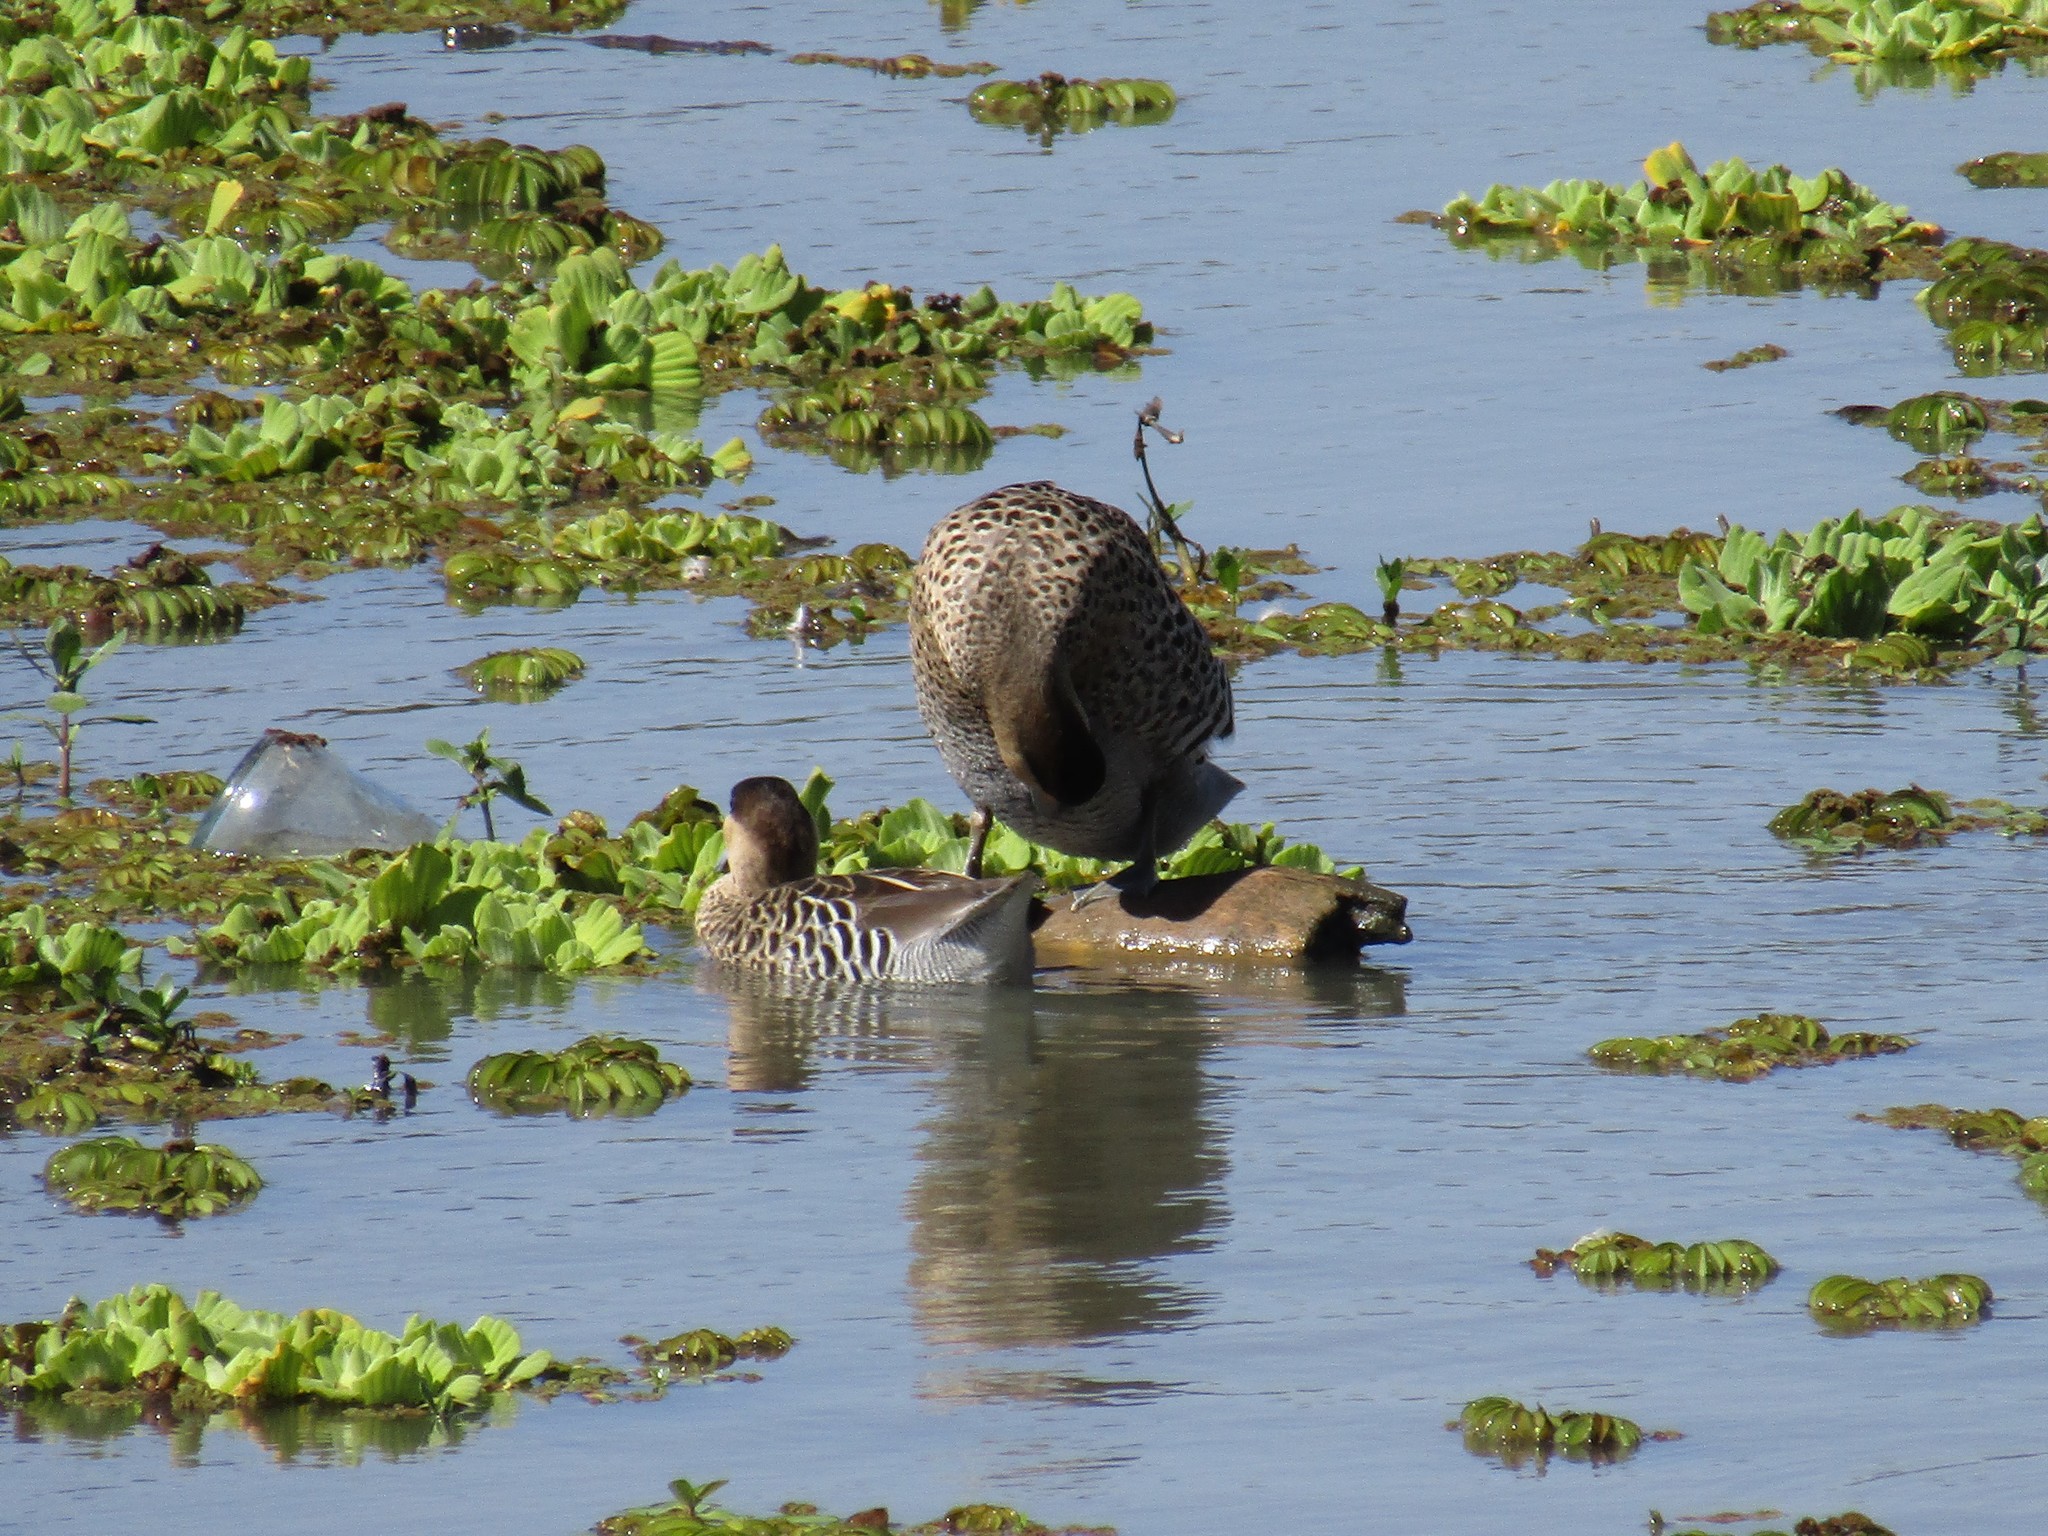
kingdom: Animalia
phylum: Chordata
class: Aves
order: Anseriformes
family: Anatidae
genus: Spatula
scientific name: Spatula versicolor
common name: Silver teal
